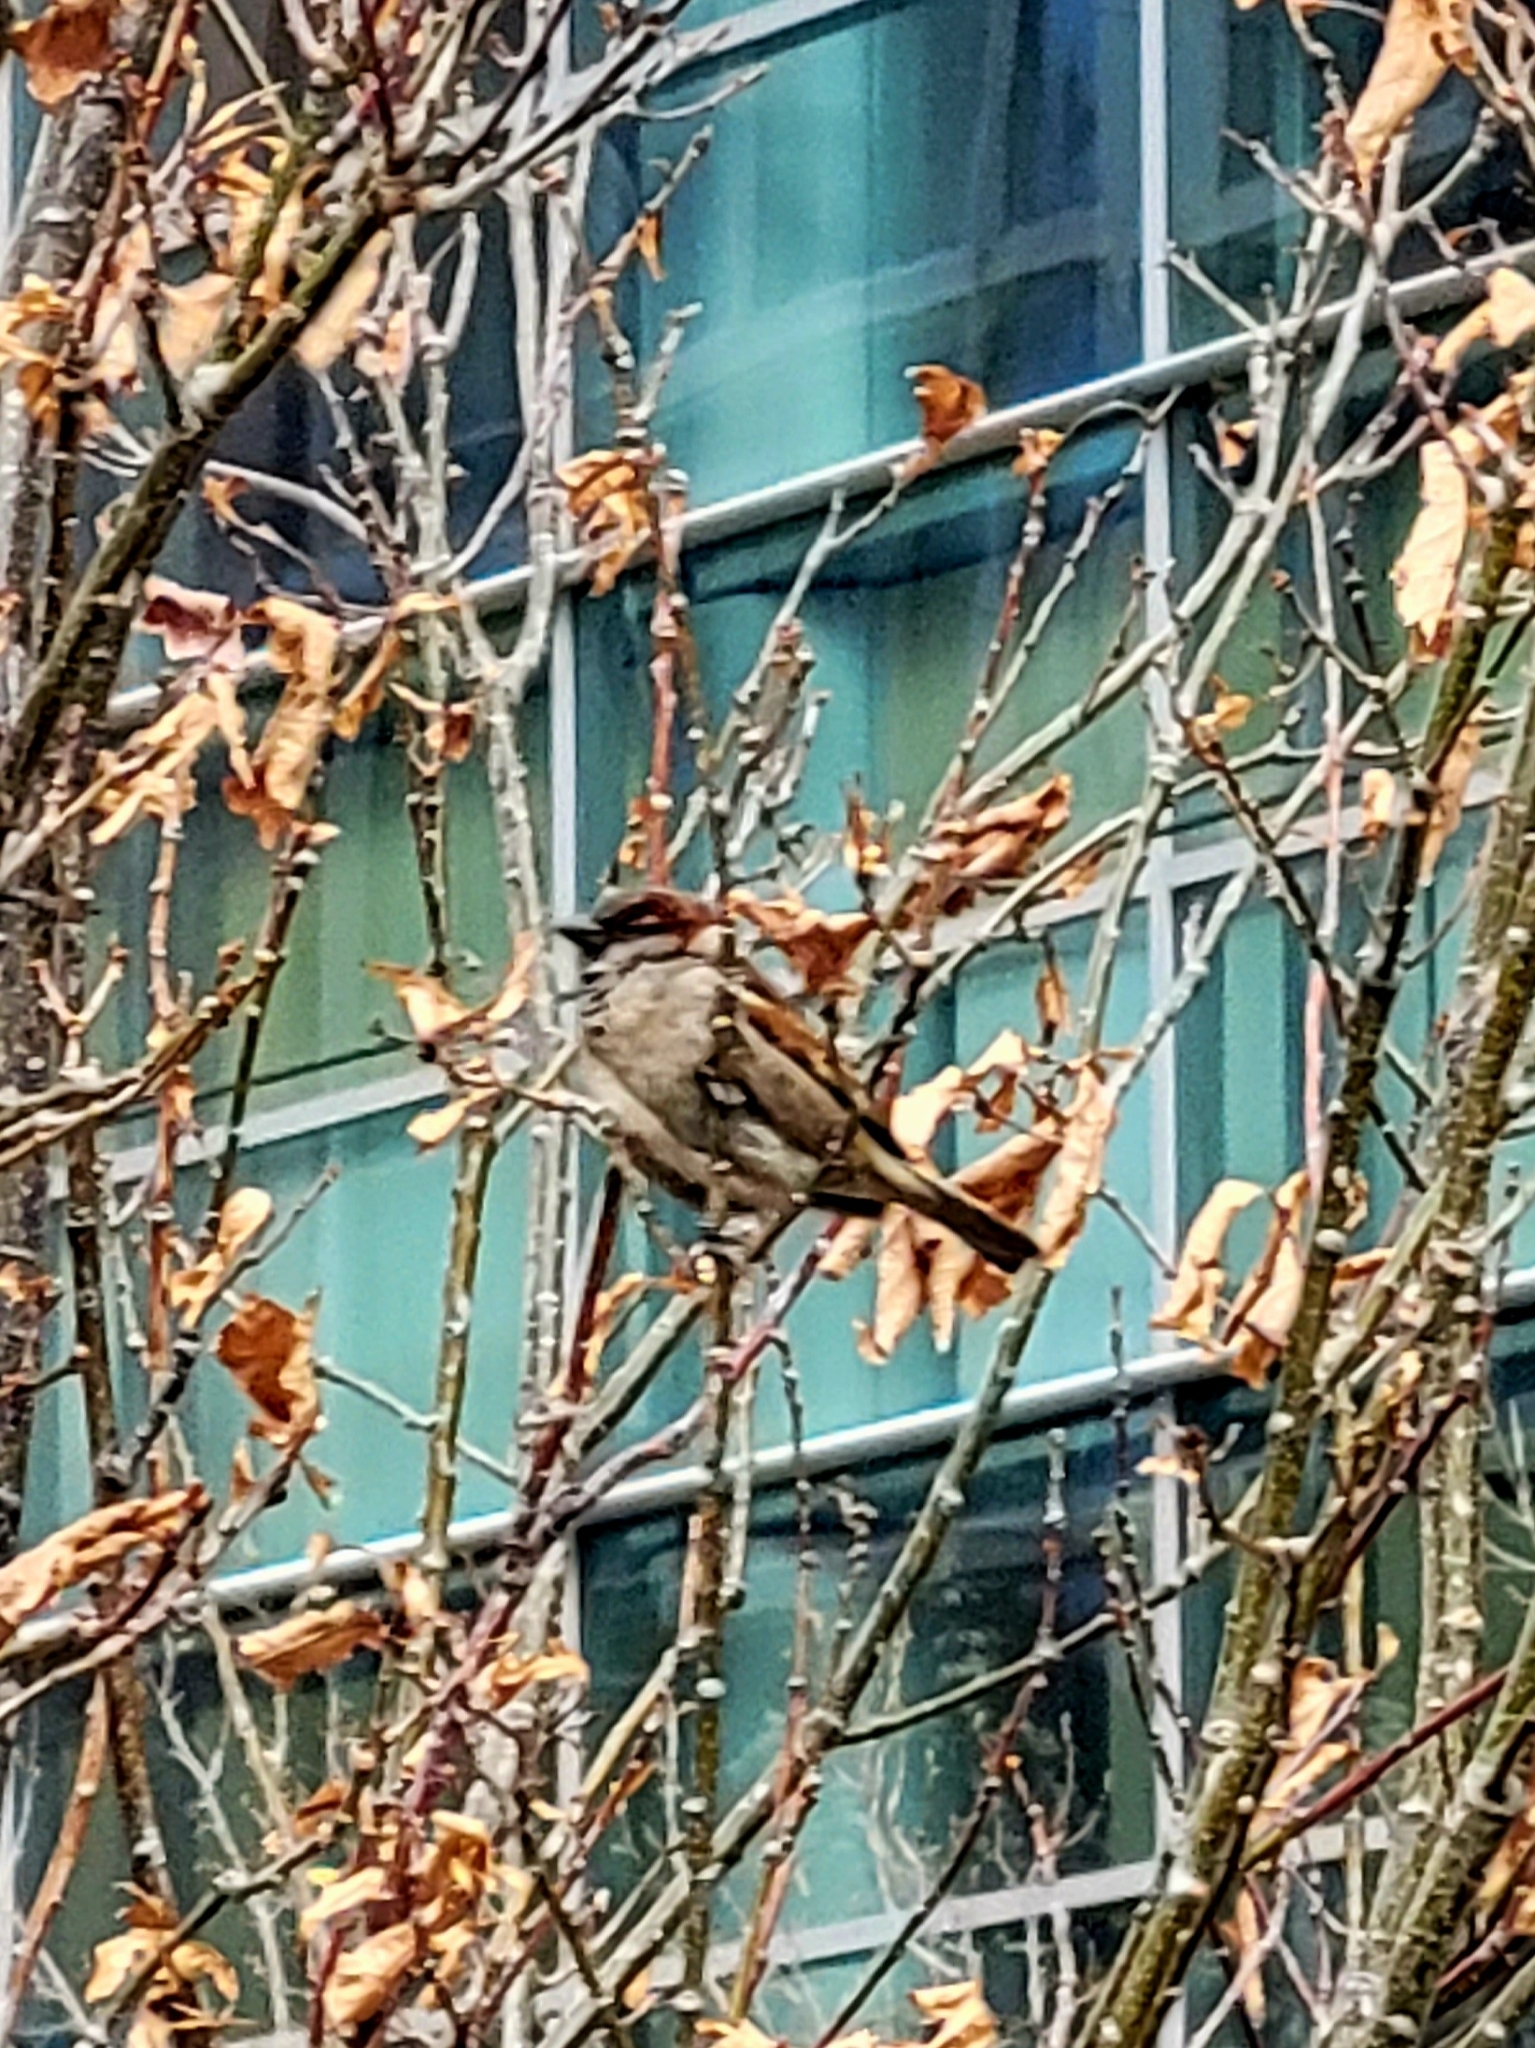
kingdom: Animalia
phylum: Chordata
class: Aves
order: Passeriformes
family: Passeridae
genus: Passer
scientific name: Passer domesticus
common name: House sparrow
